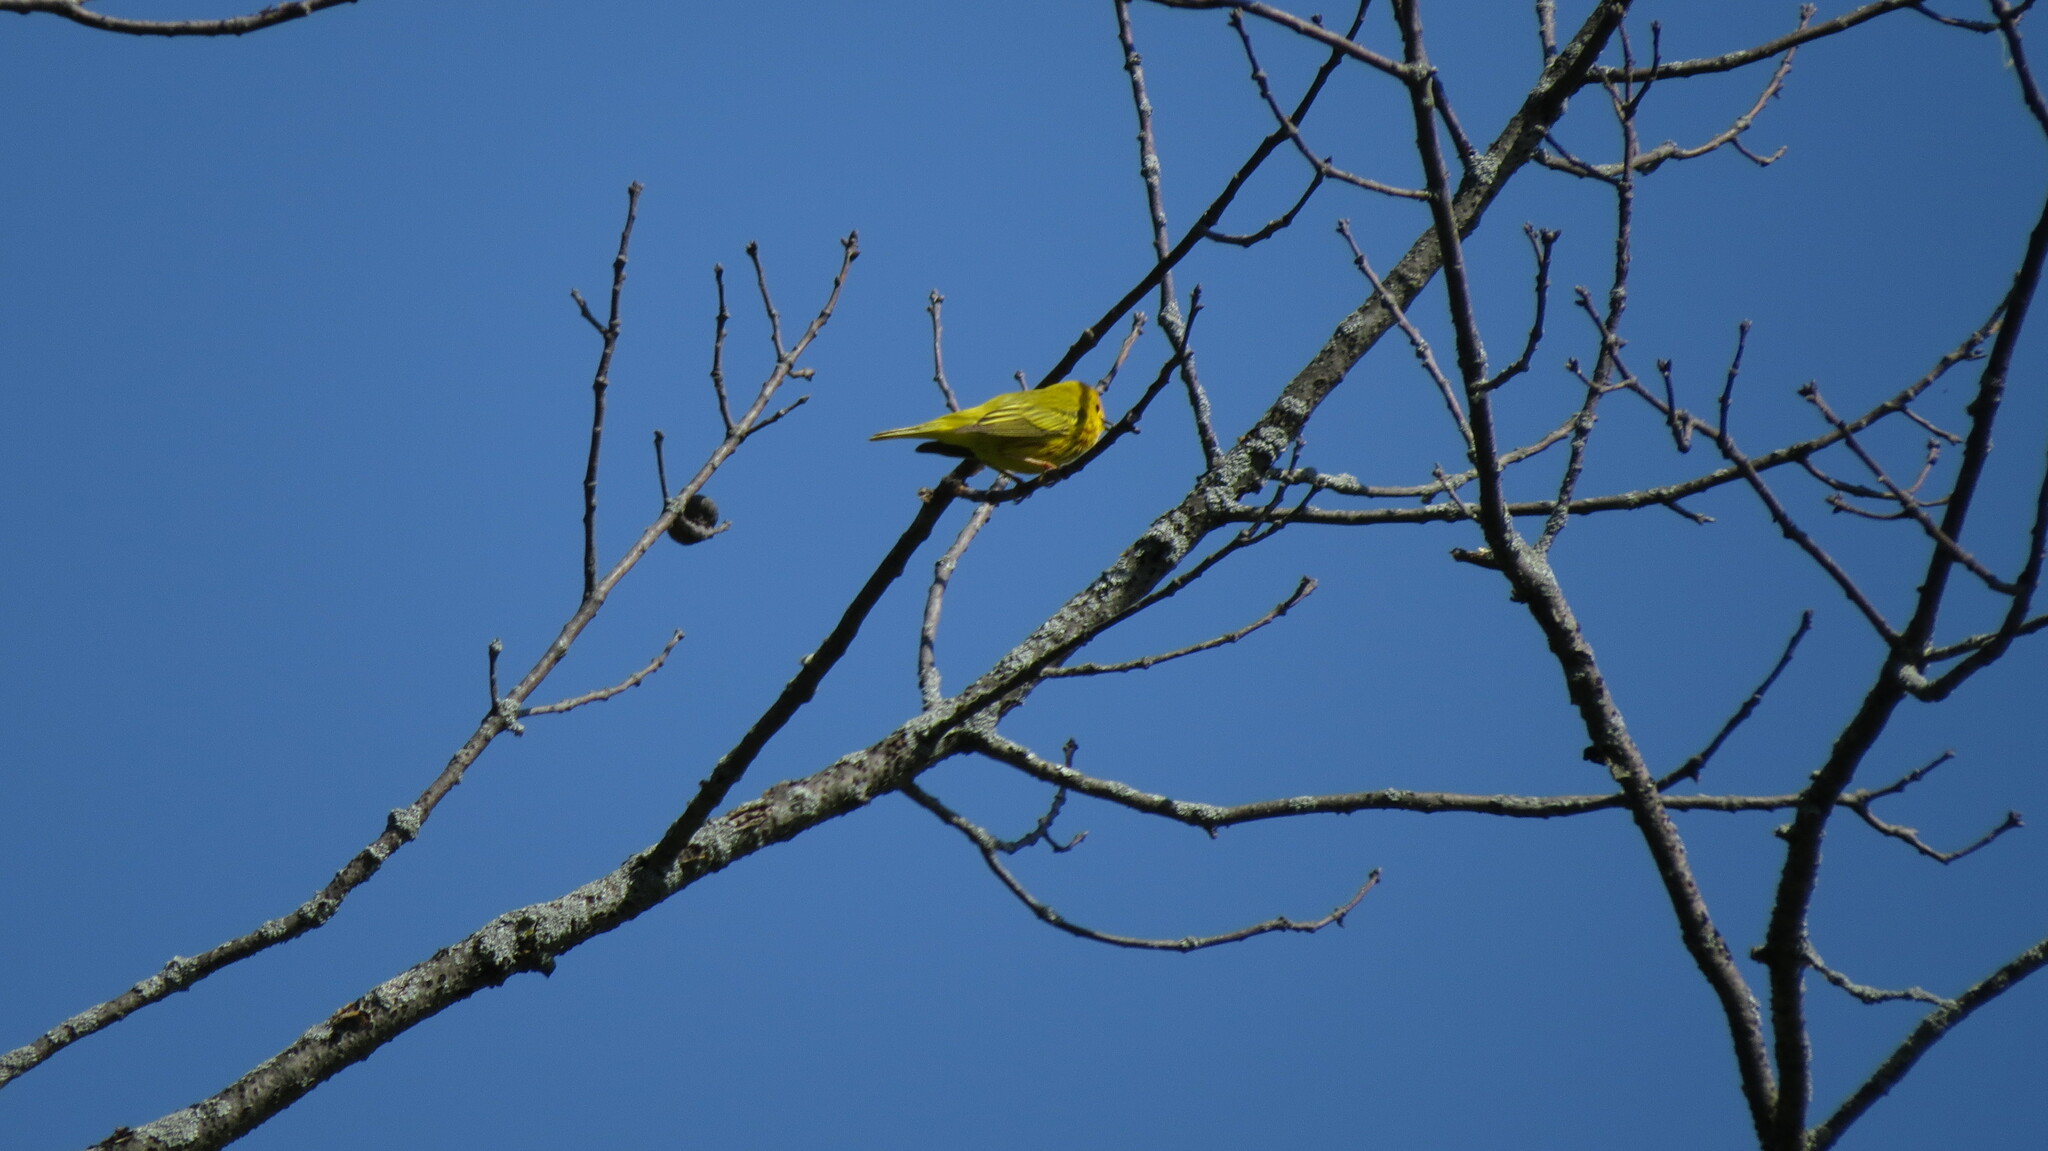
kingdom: Animalia
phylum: Chordata
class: Aves
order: Passeriformes
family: Parulidae
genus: Setophaga
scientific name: Setophaga petechia
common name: Yellow warbler
